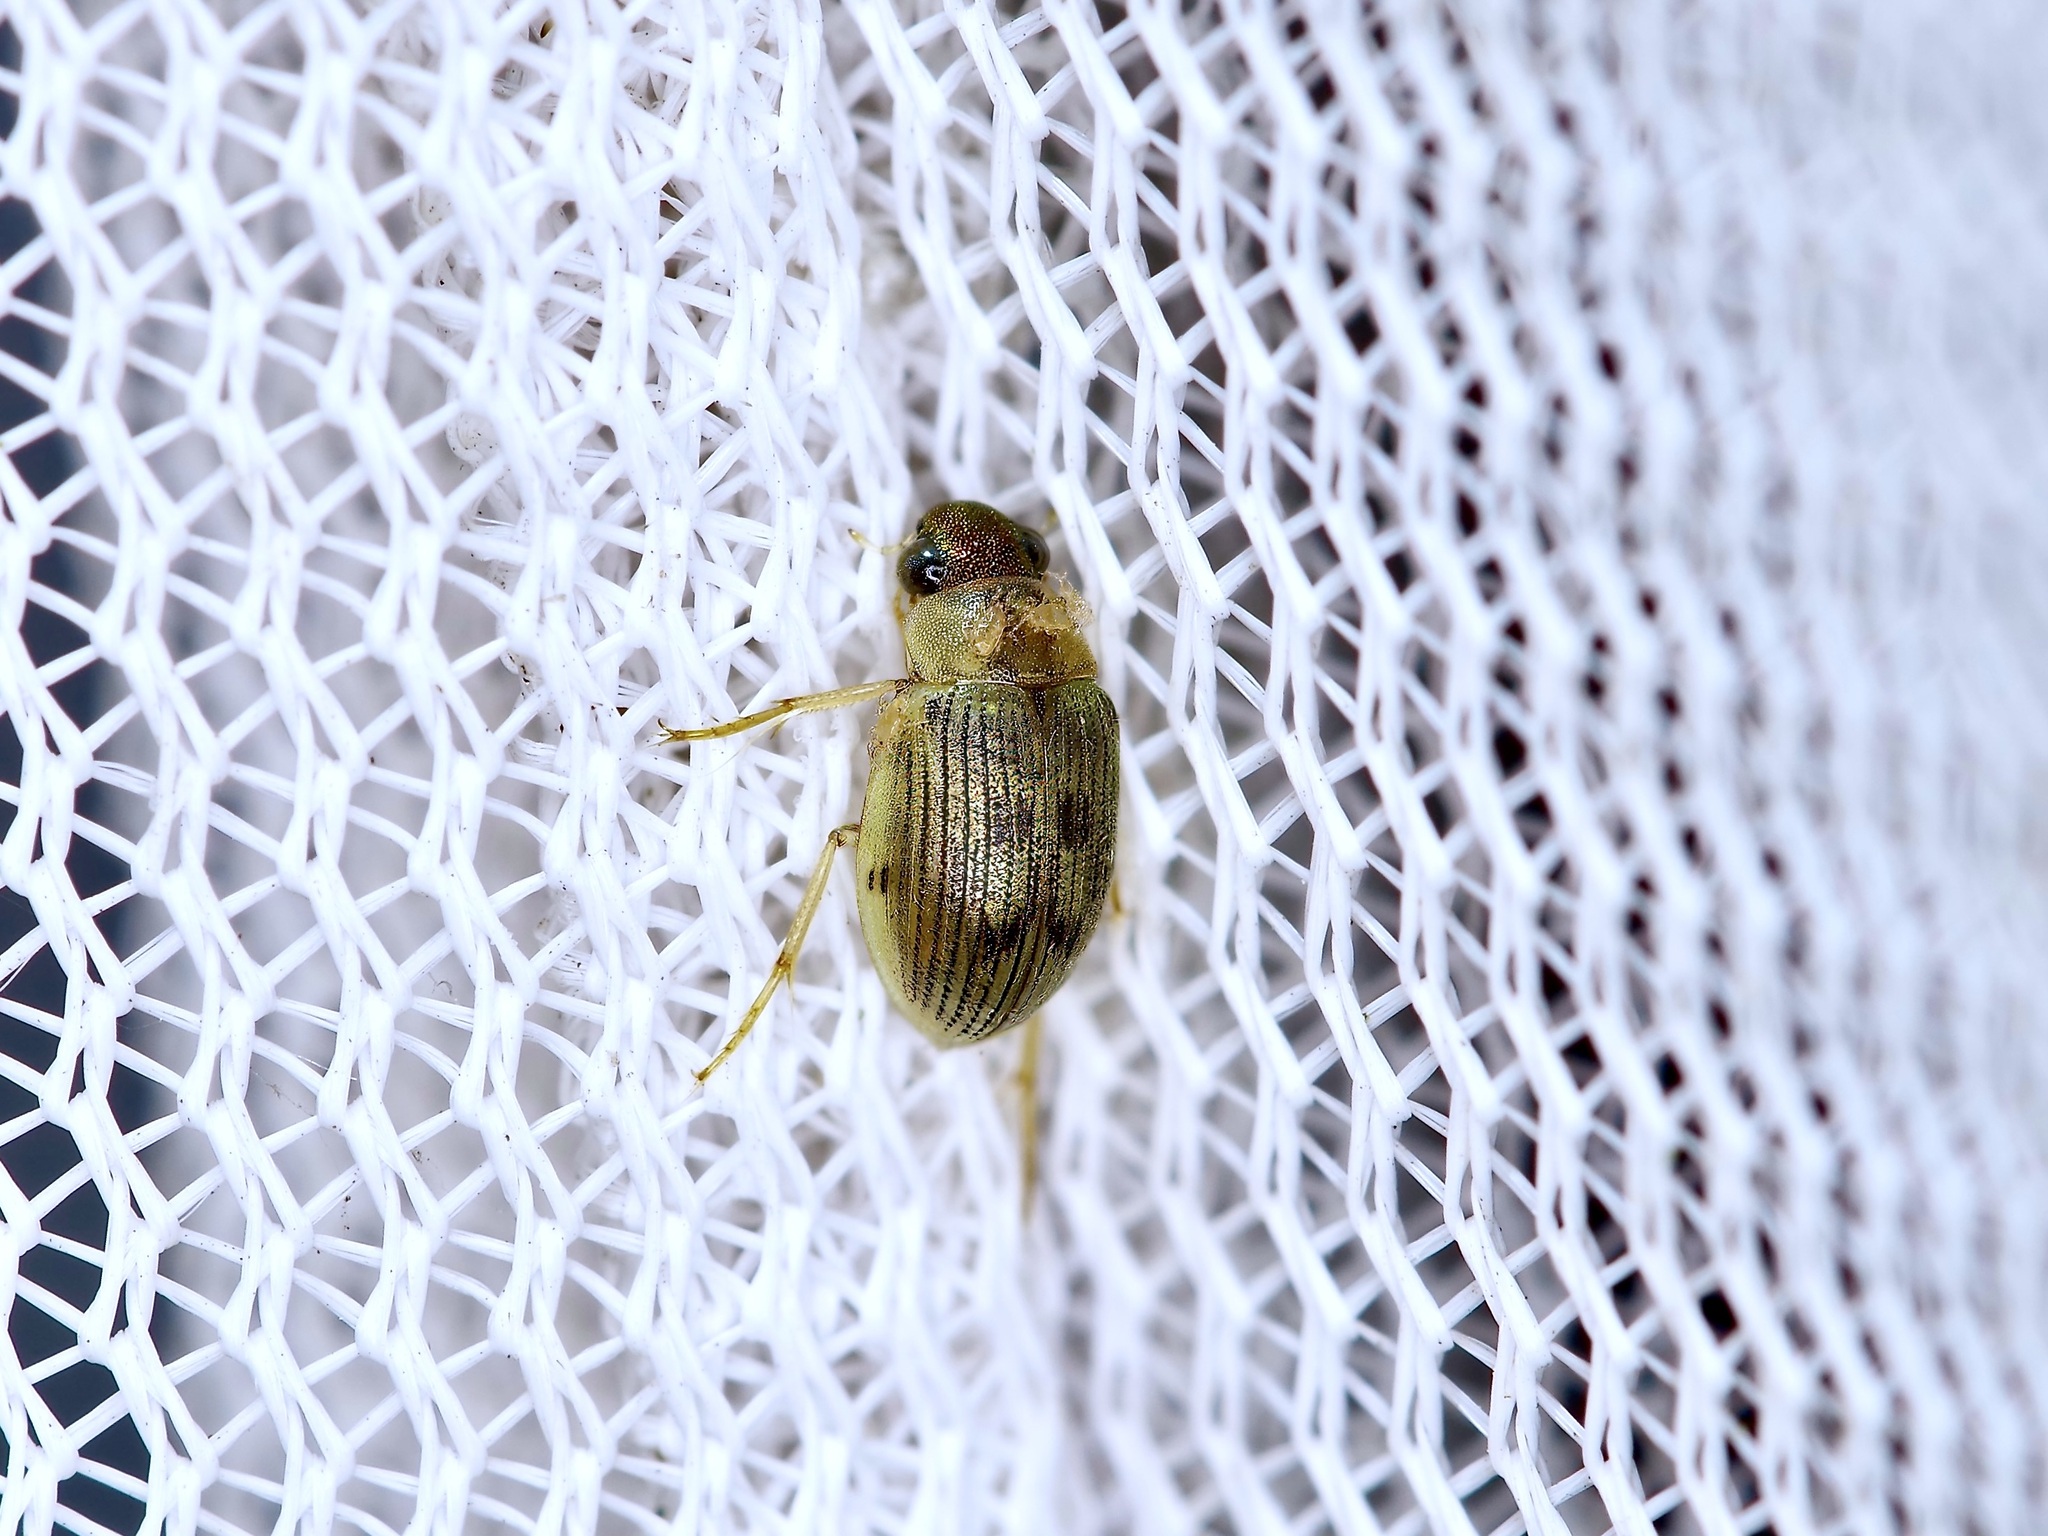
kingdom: Animalia
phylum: Arthropoda
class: Insecta
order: Coleoptera
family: Hydrophilidae
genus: Berosus
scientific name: Berosus
